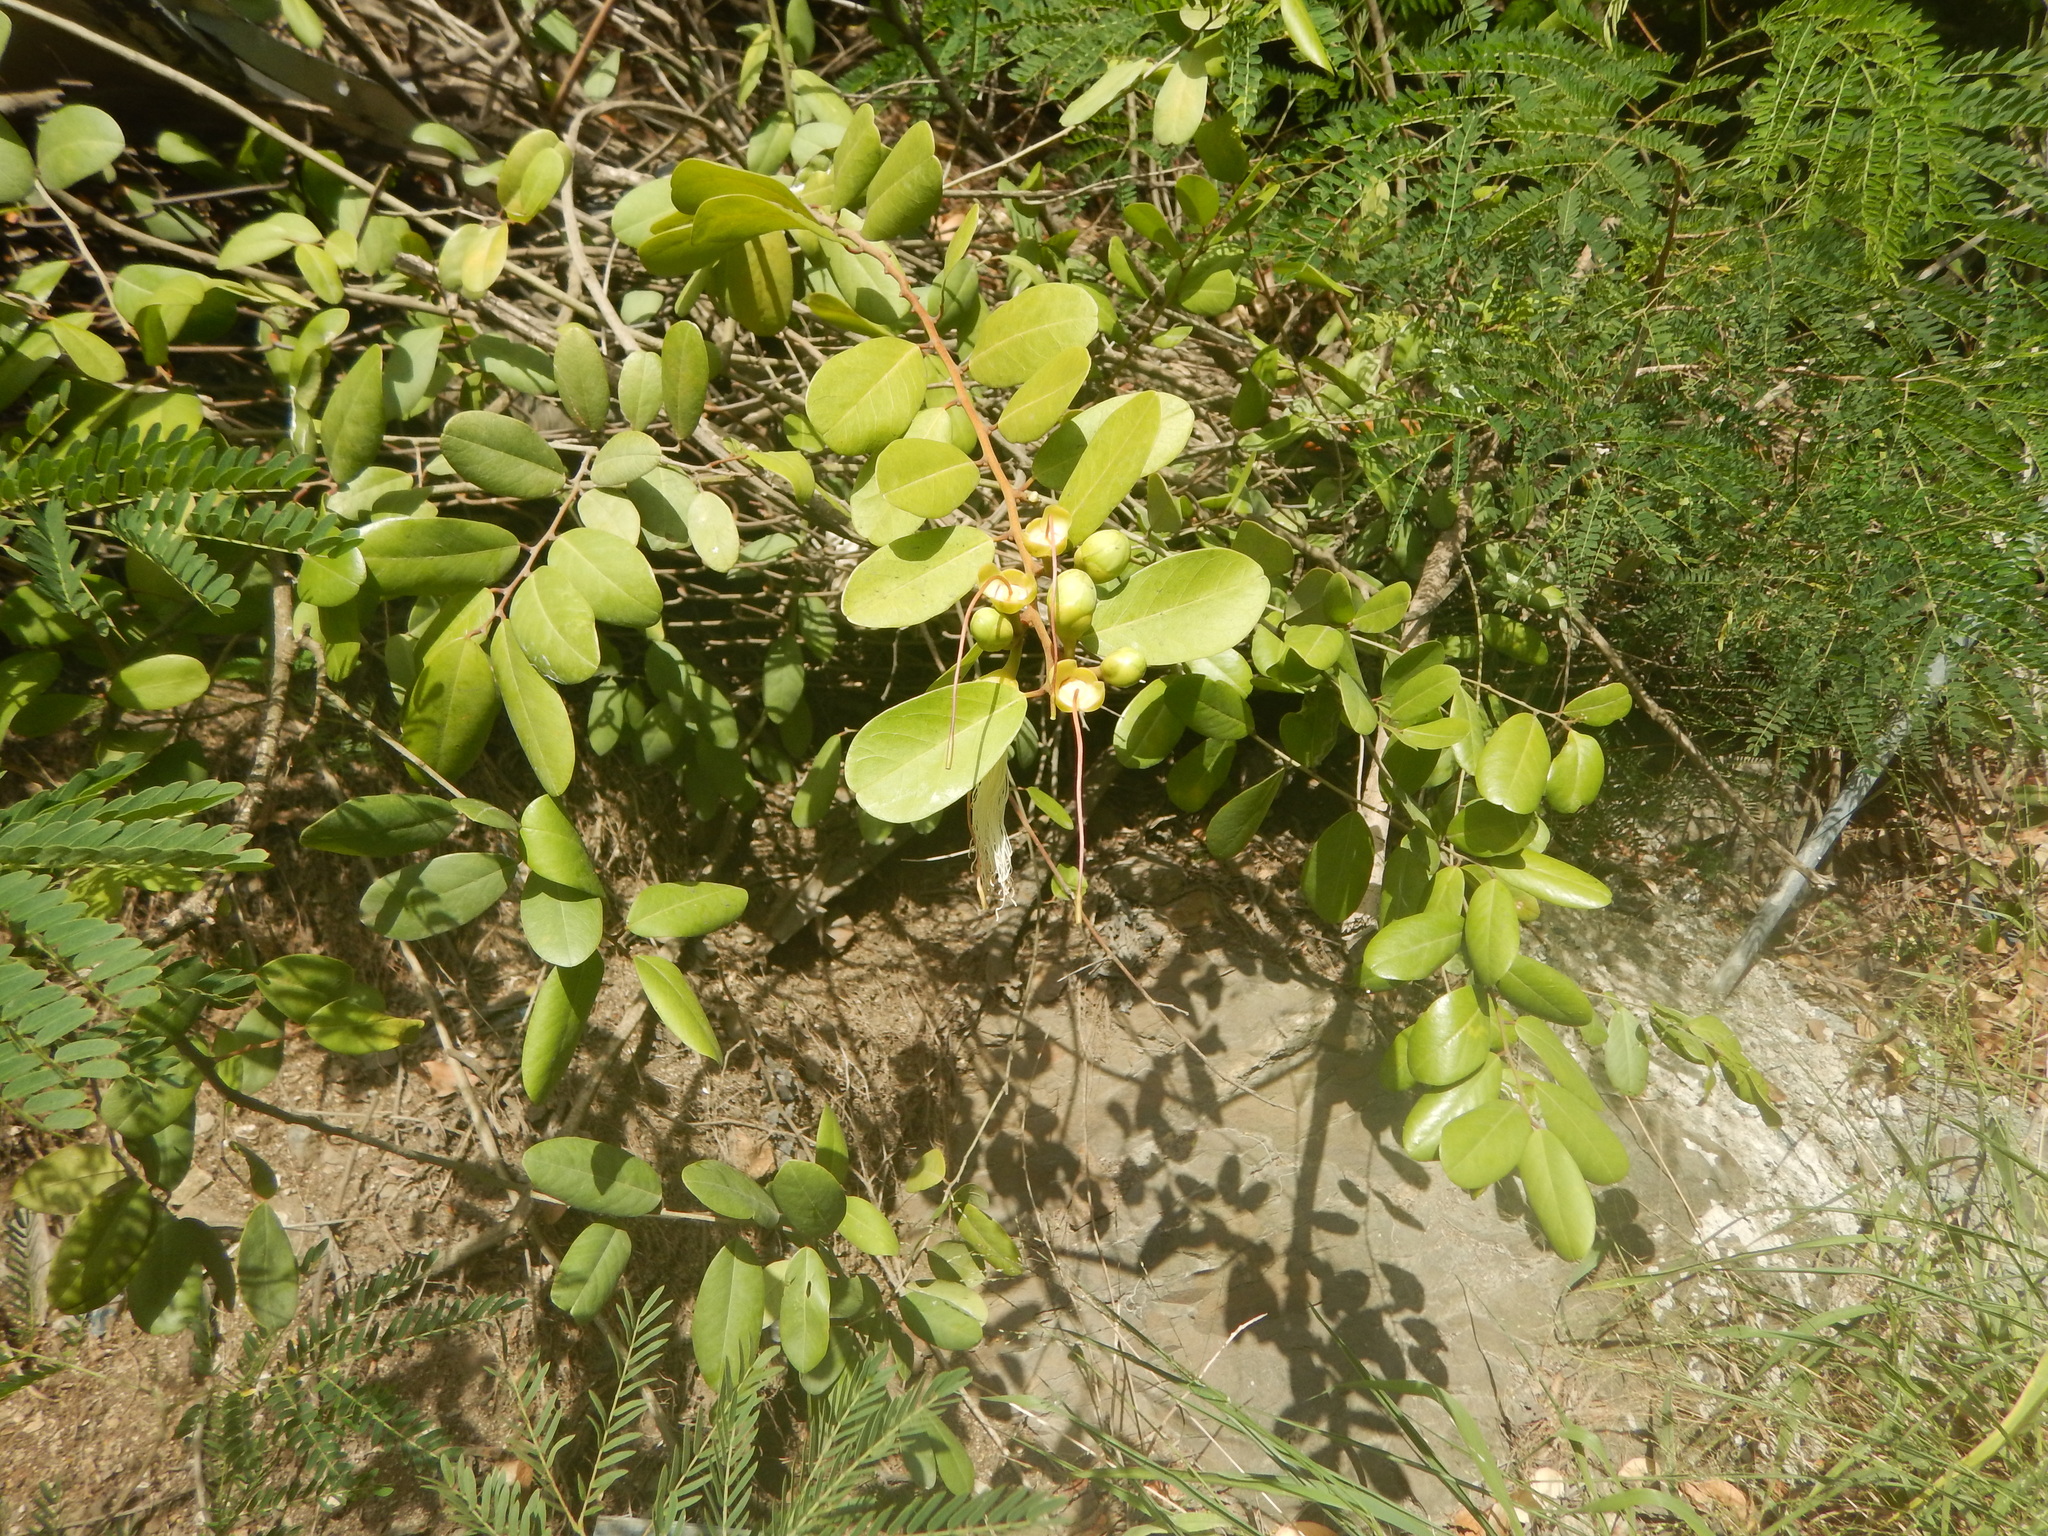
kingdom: Plantae
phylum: Tracheophyta
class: Magnoliopsida
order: Brassicales
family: Capparaceae
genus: Cynophalla
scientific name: Cynophalla flexuosa
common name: Capertree
